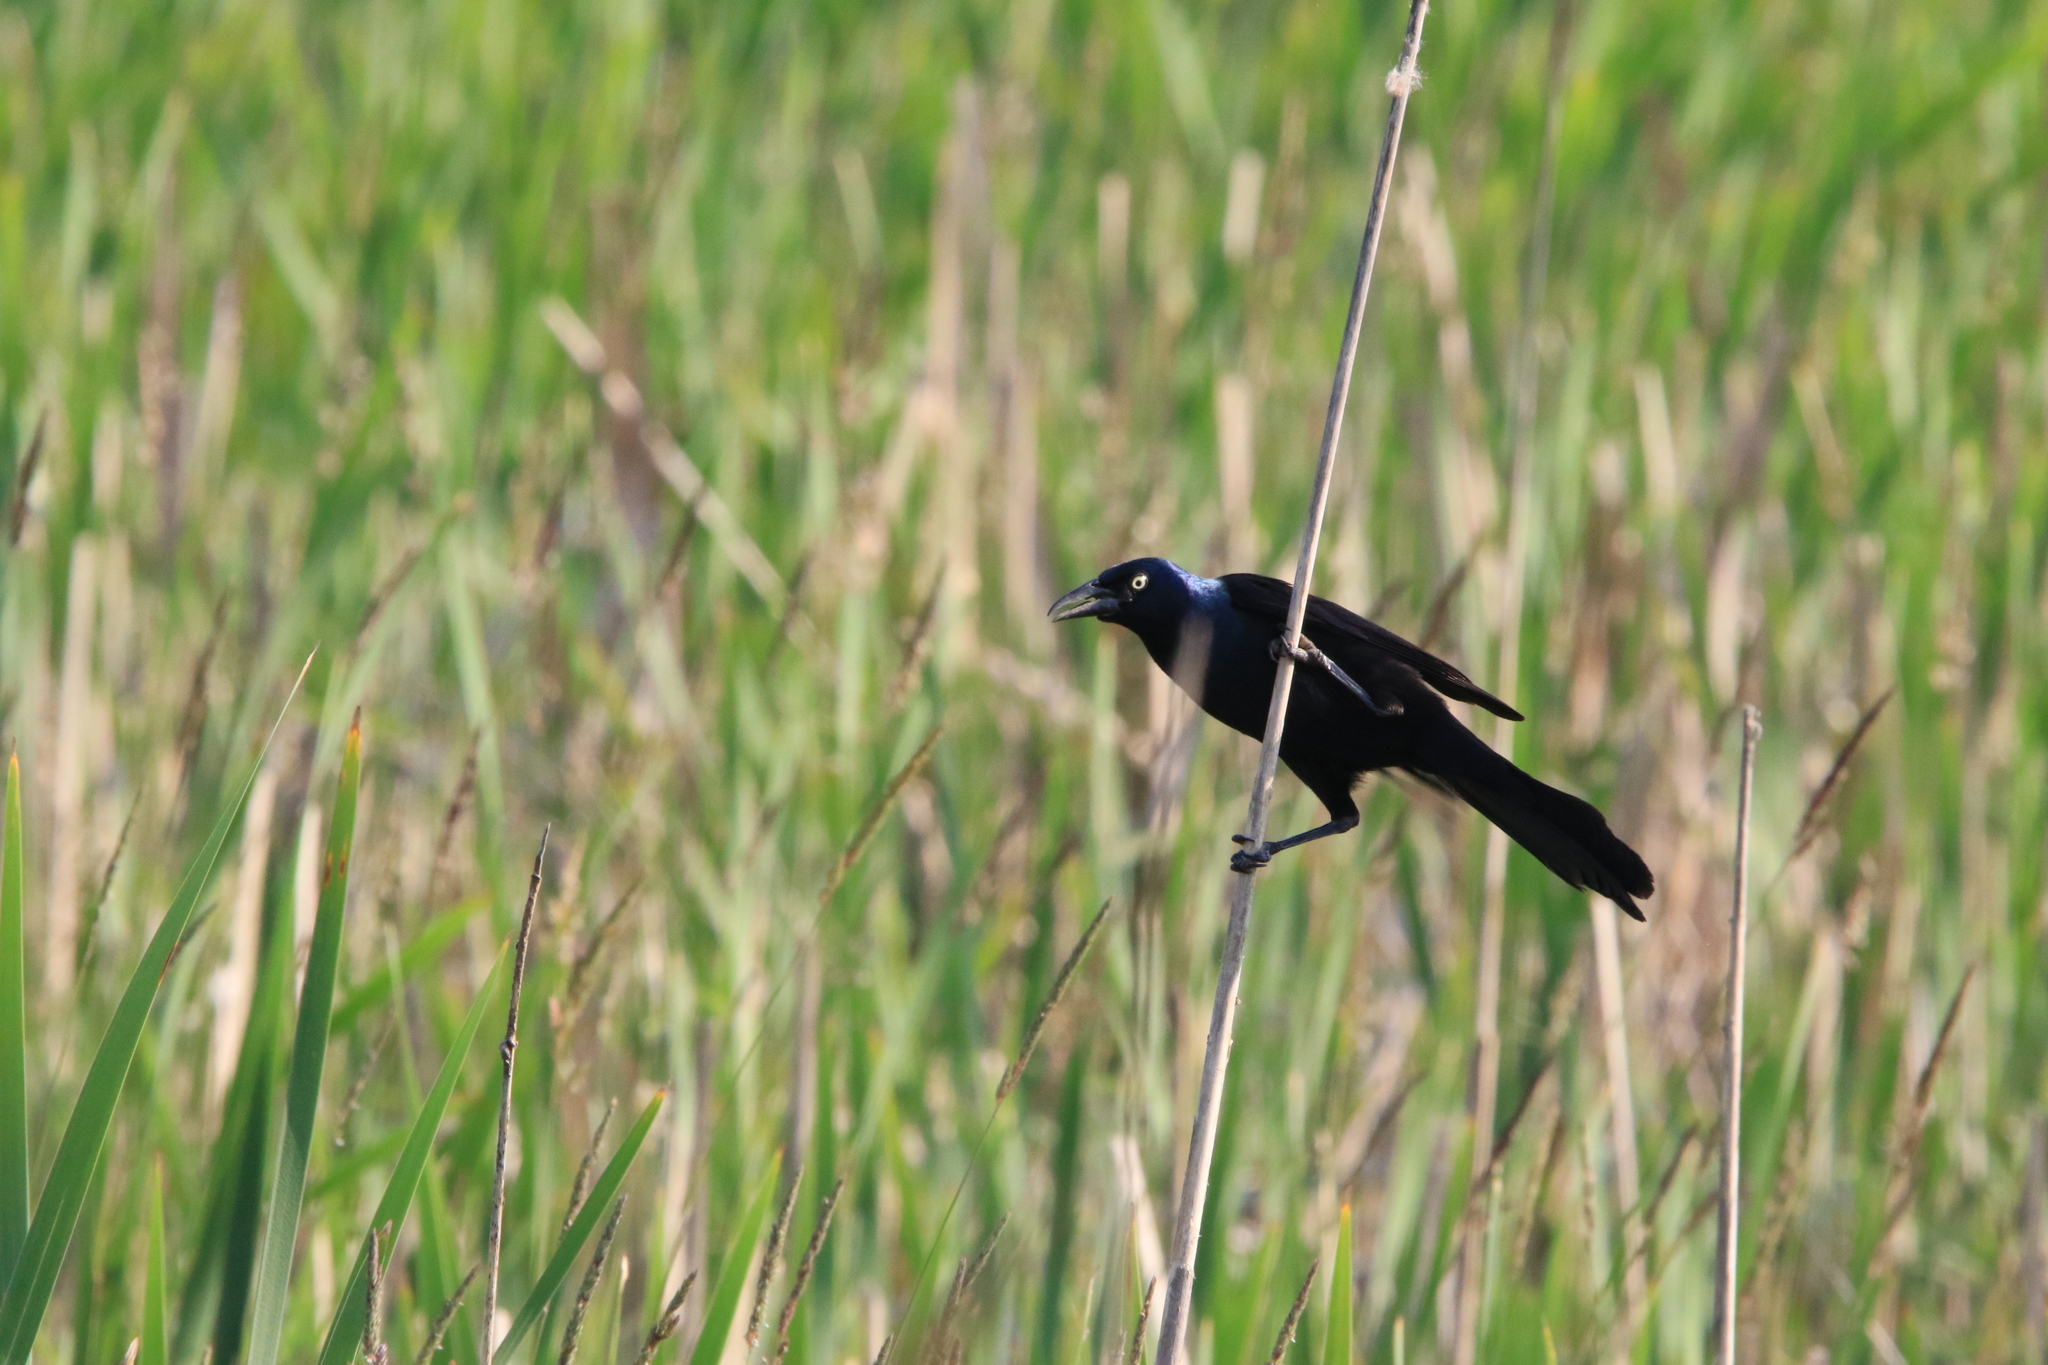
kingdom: Animalia
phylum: Chordata
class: Aves
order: Passeriformes
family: Icteridae
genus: Quiscalus
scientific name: Quiscalus quiscula
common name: Common grackle
